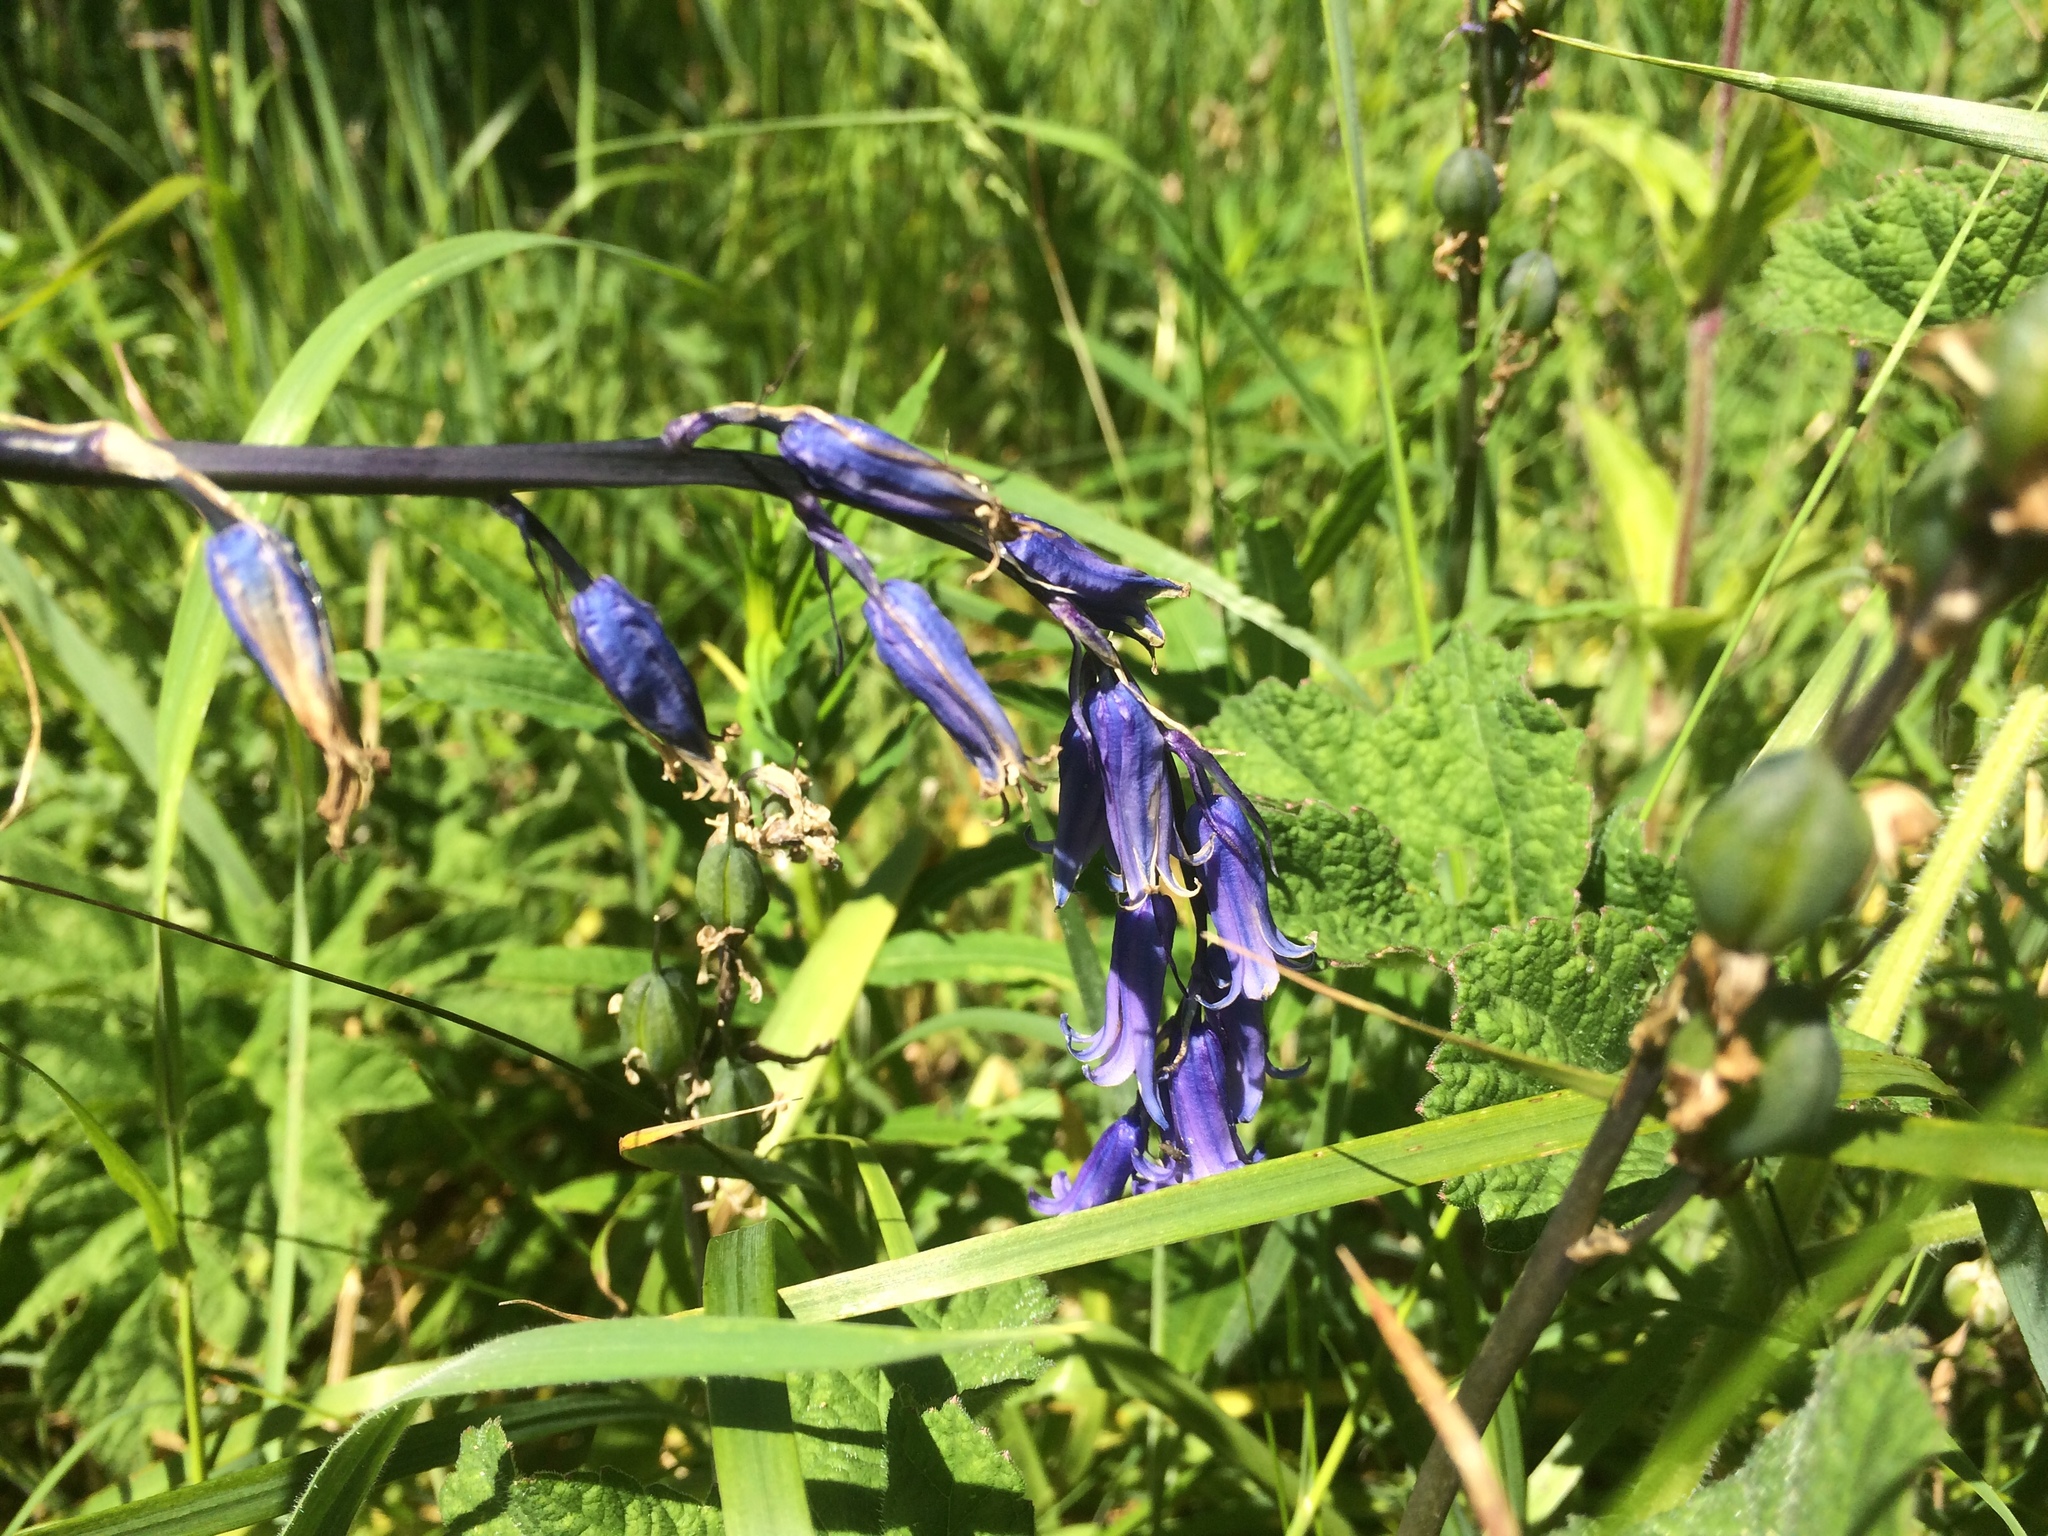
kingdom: Plantae
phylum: Tracheophyta
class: Liliopsida
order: Asparagales
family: Asparagaceae
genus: Hyacinthoides
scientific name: Hyacinthoides non-scripta
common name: Bluebell
